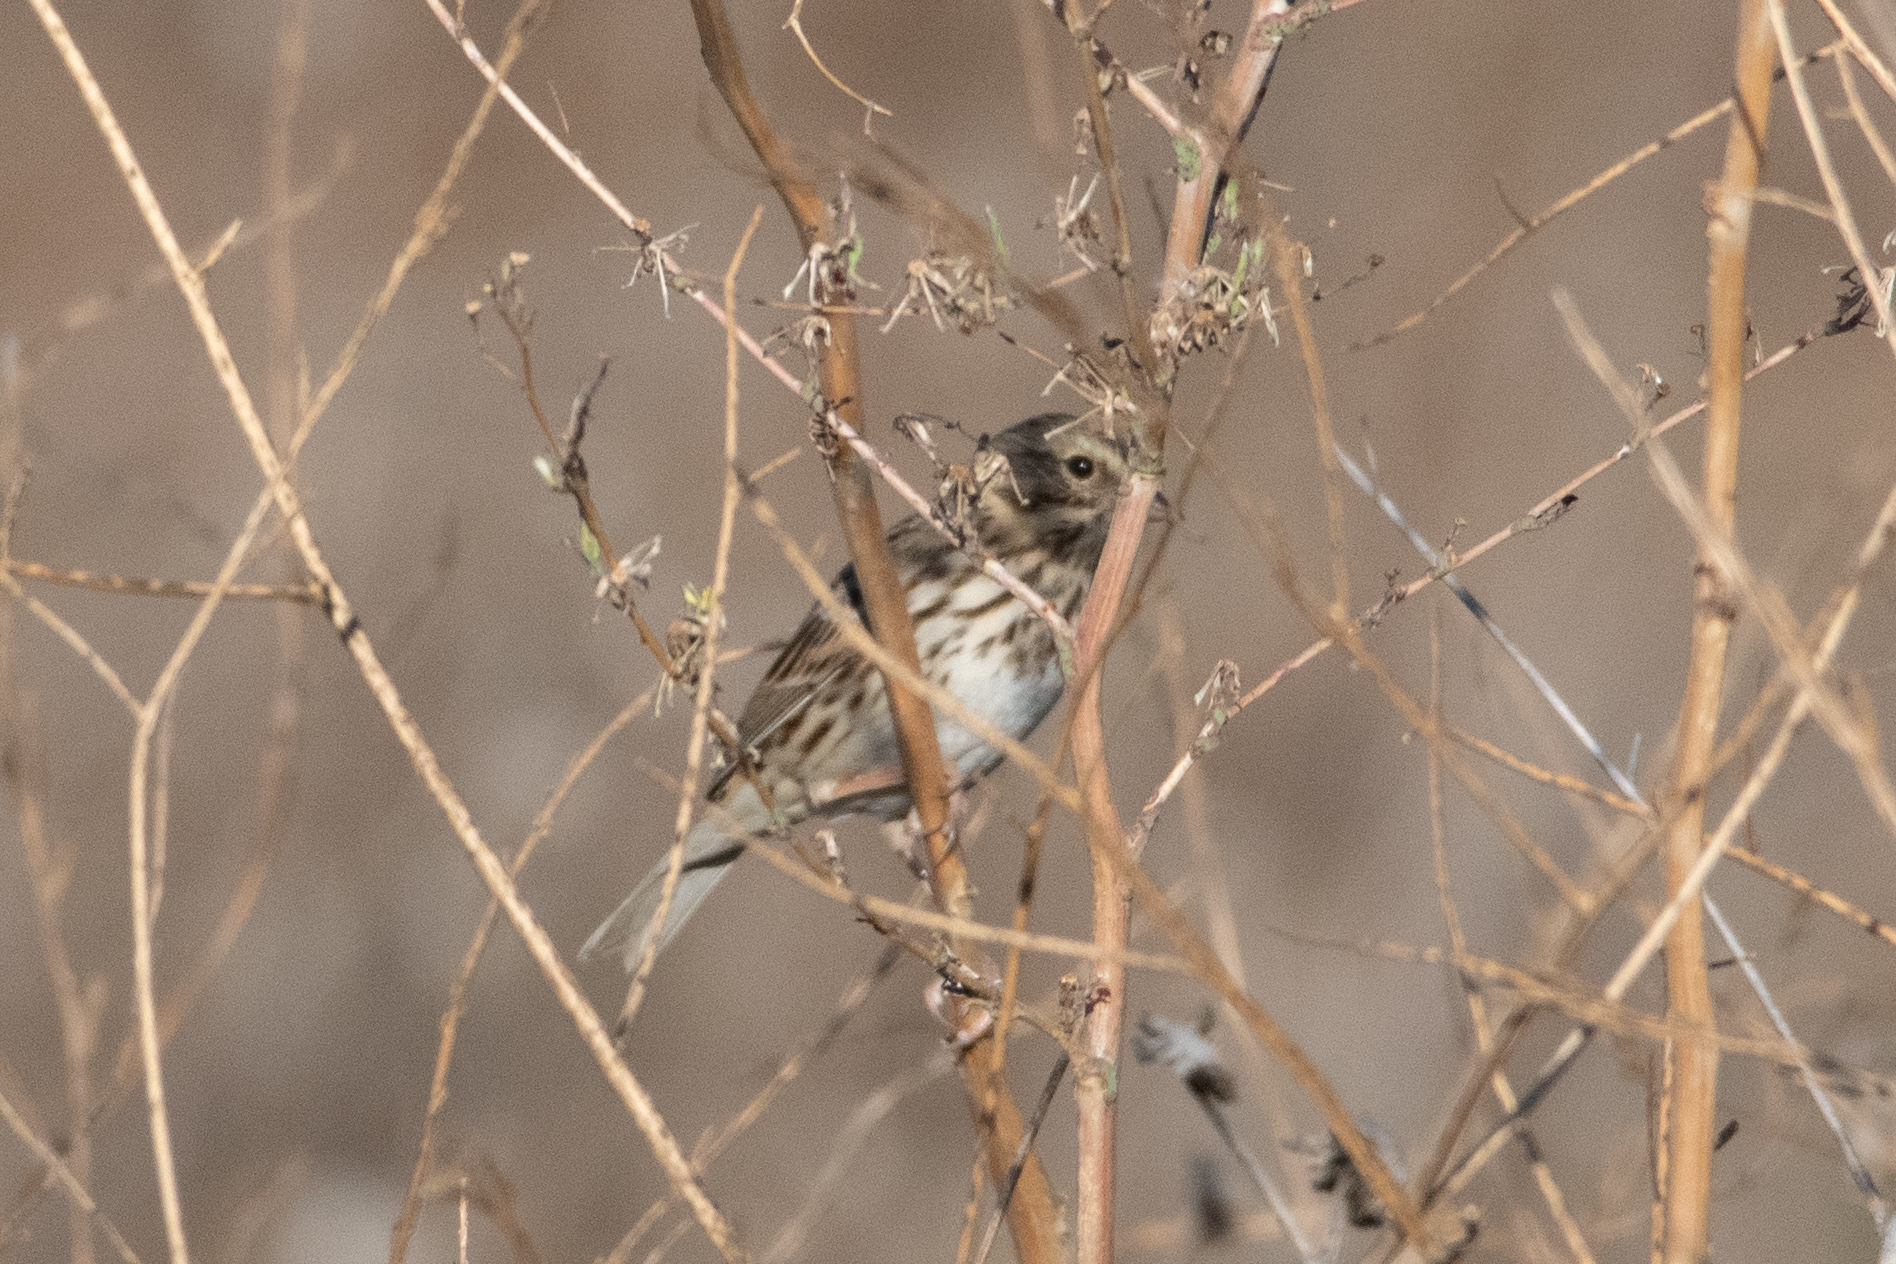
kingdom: Animalia
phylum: Chordata
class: Aves
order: Passeriformes
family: Passerellidae
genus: Passerculus
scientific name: Passerculus sandwichensis
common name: Savannah sparrow
